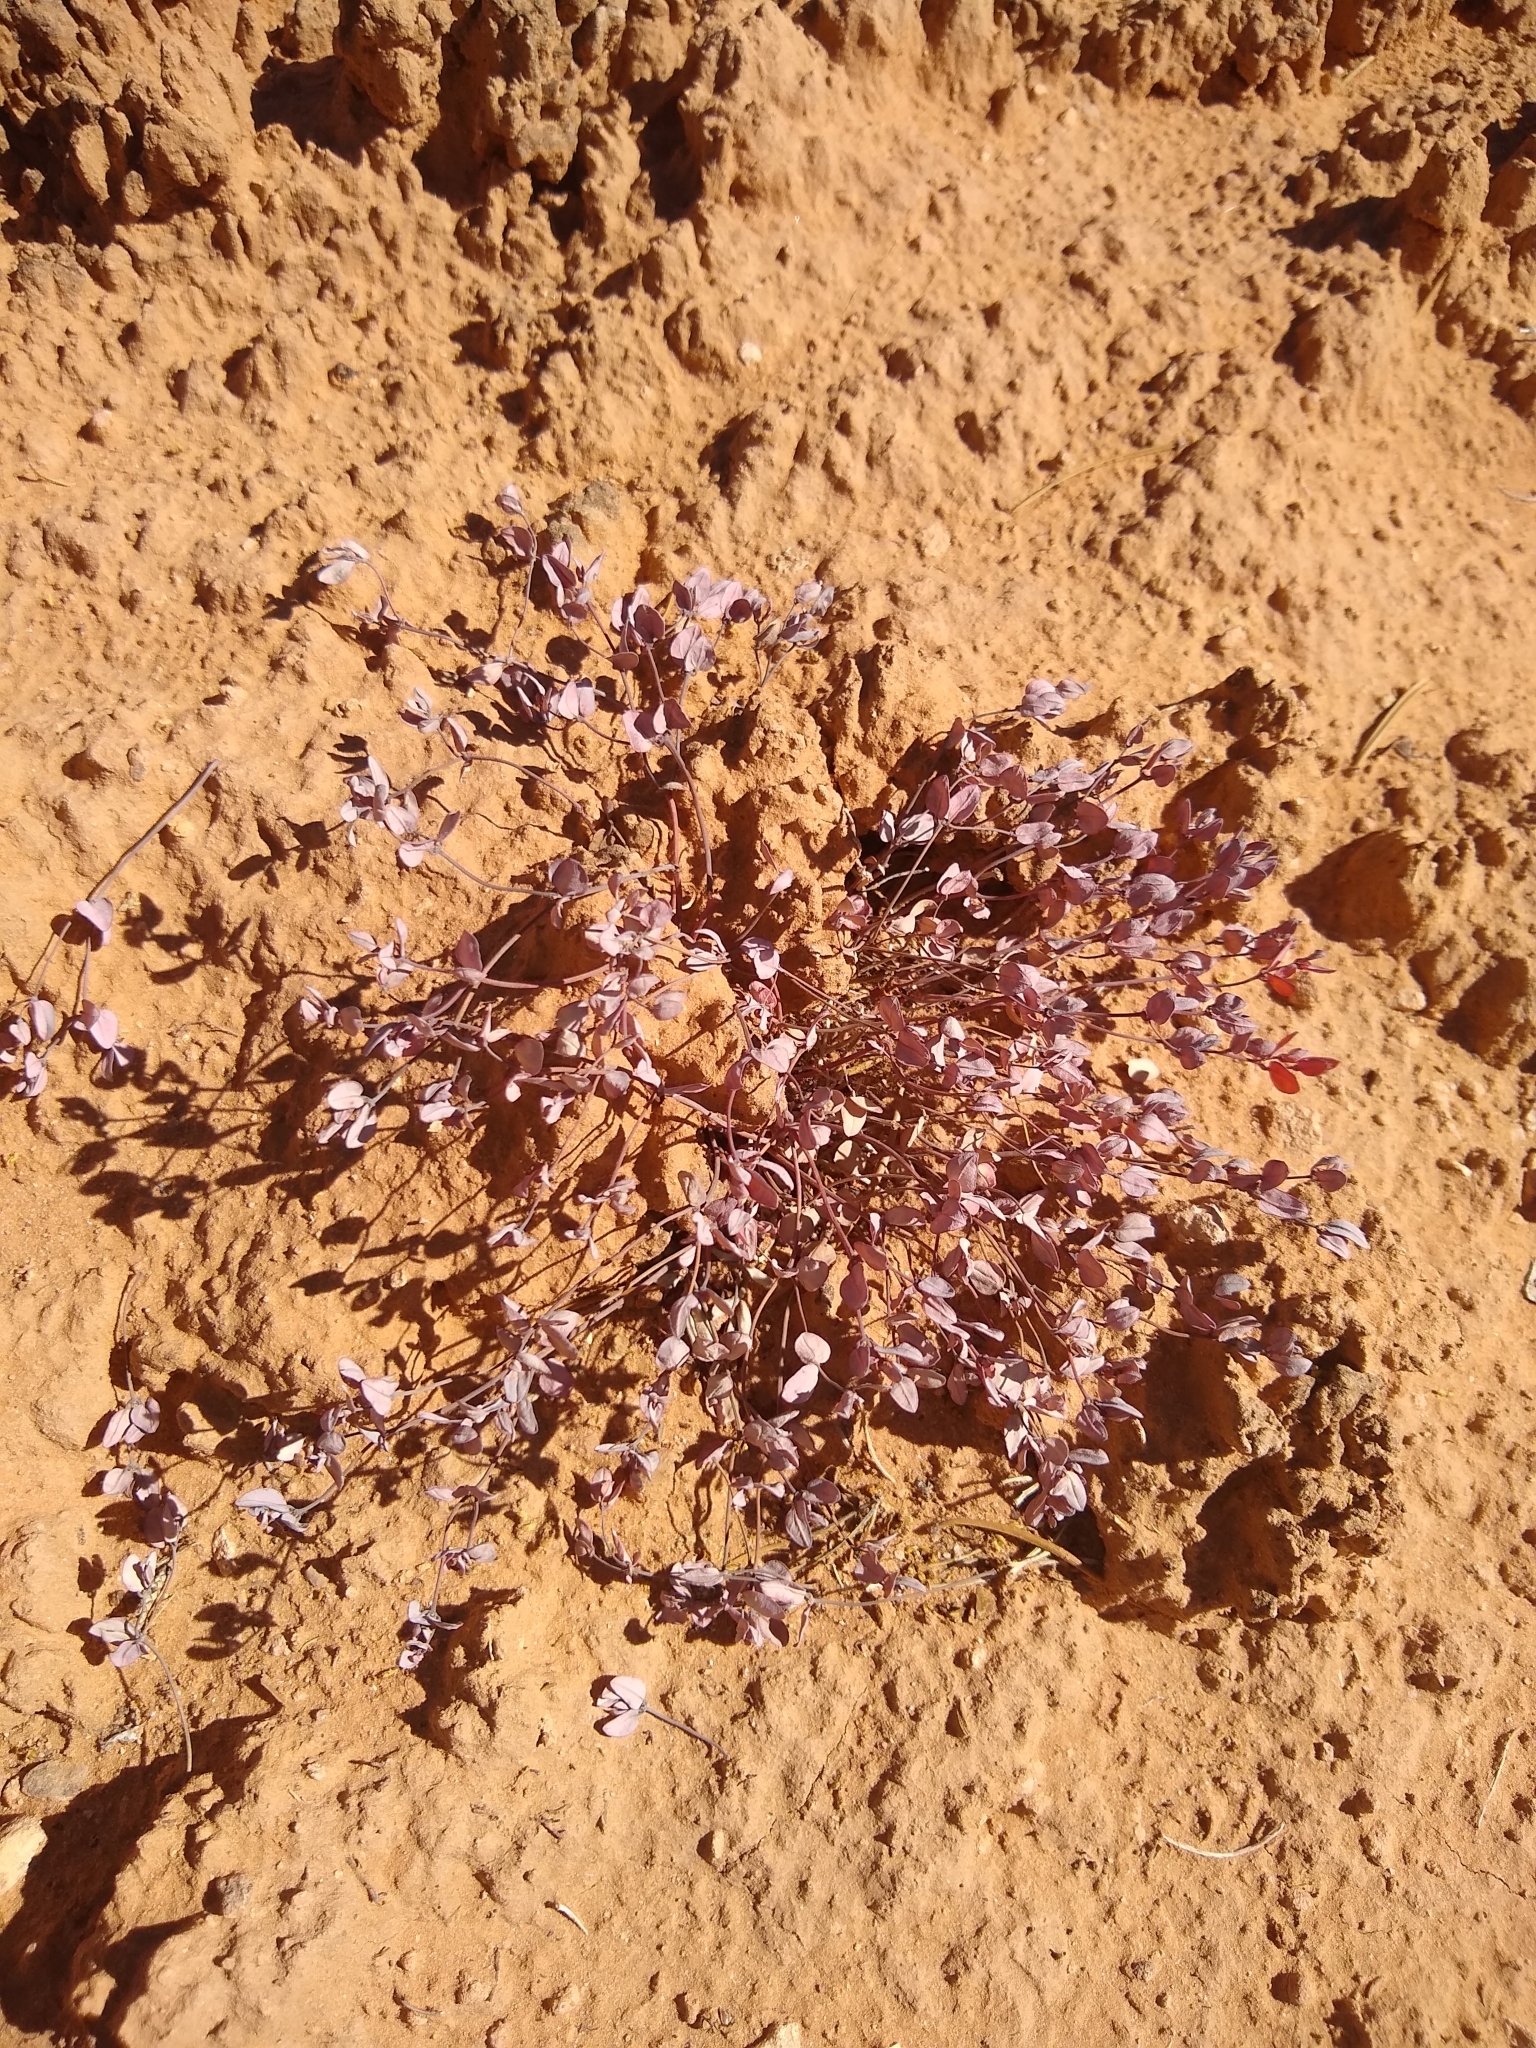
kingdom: Plantae
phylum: Tracheophyta
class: Magnoliopsida
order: Malpighiales
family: Euphorbiaceae
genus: Euphorbia
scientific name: Euphorbia fendleri
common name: Fendler's euphorbia
